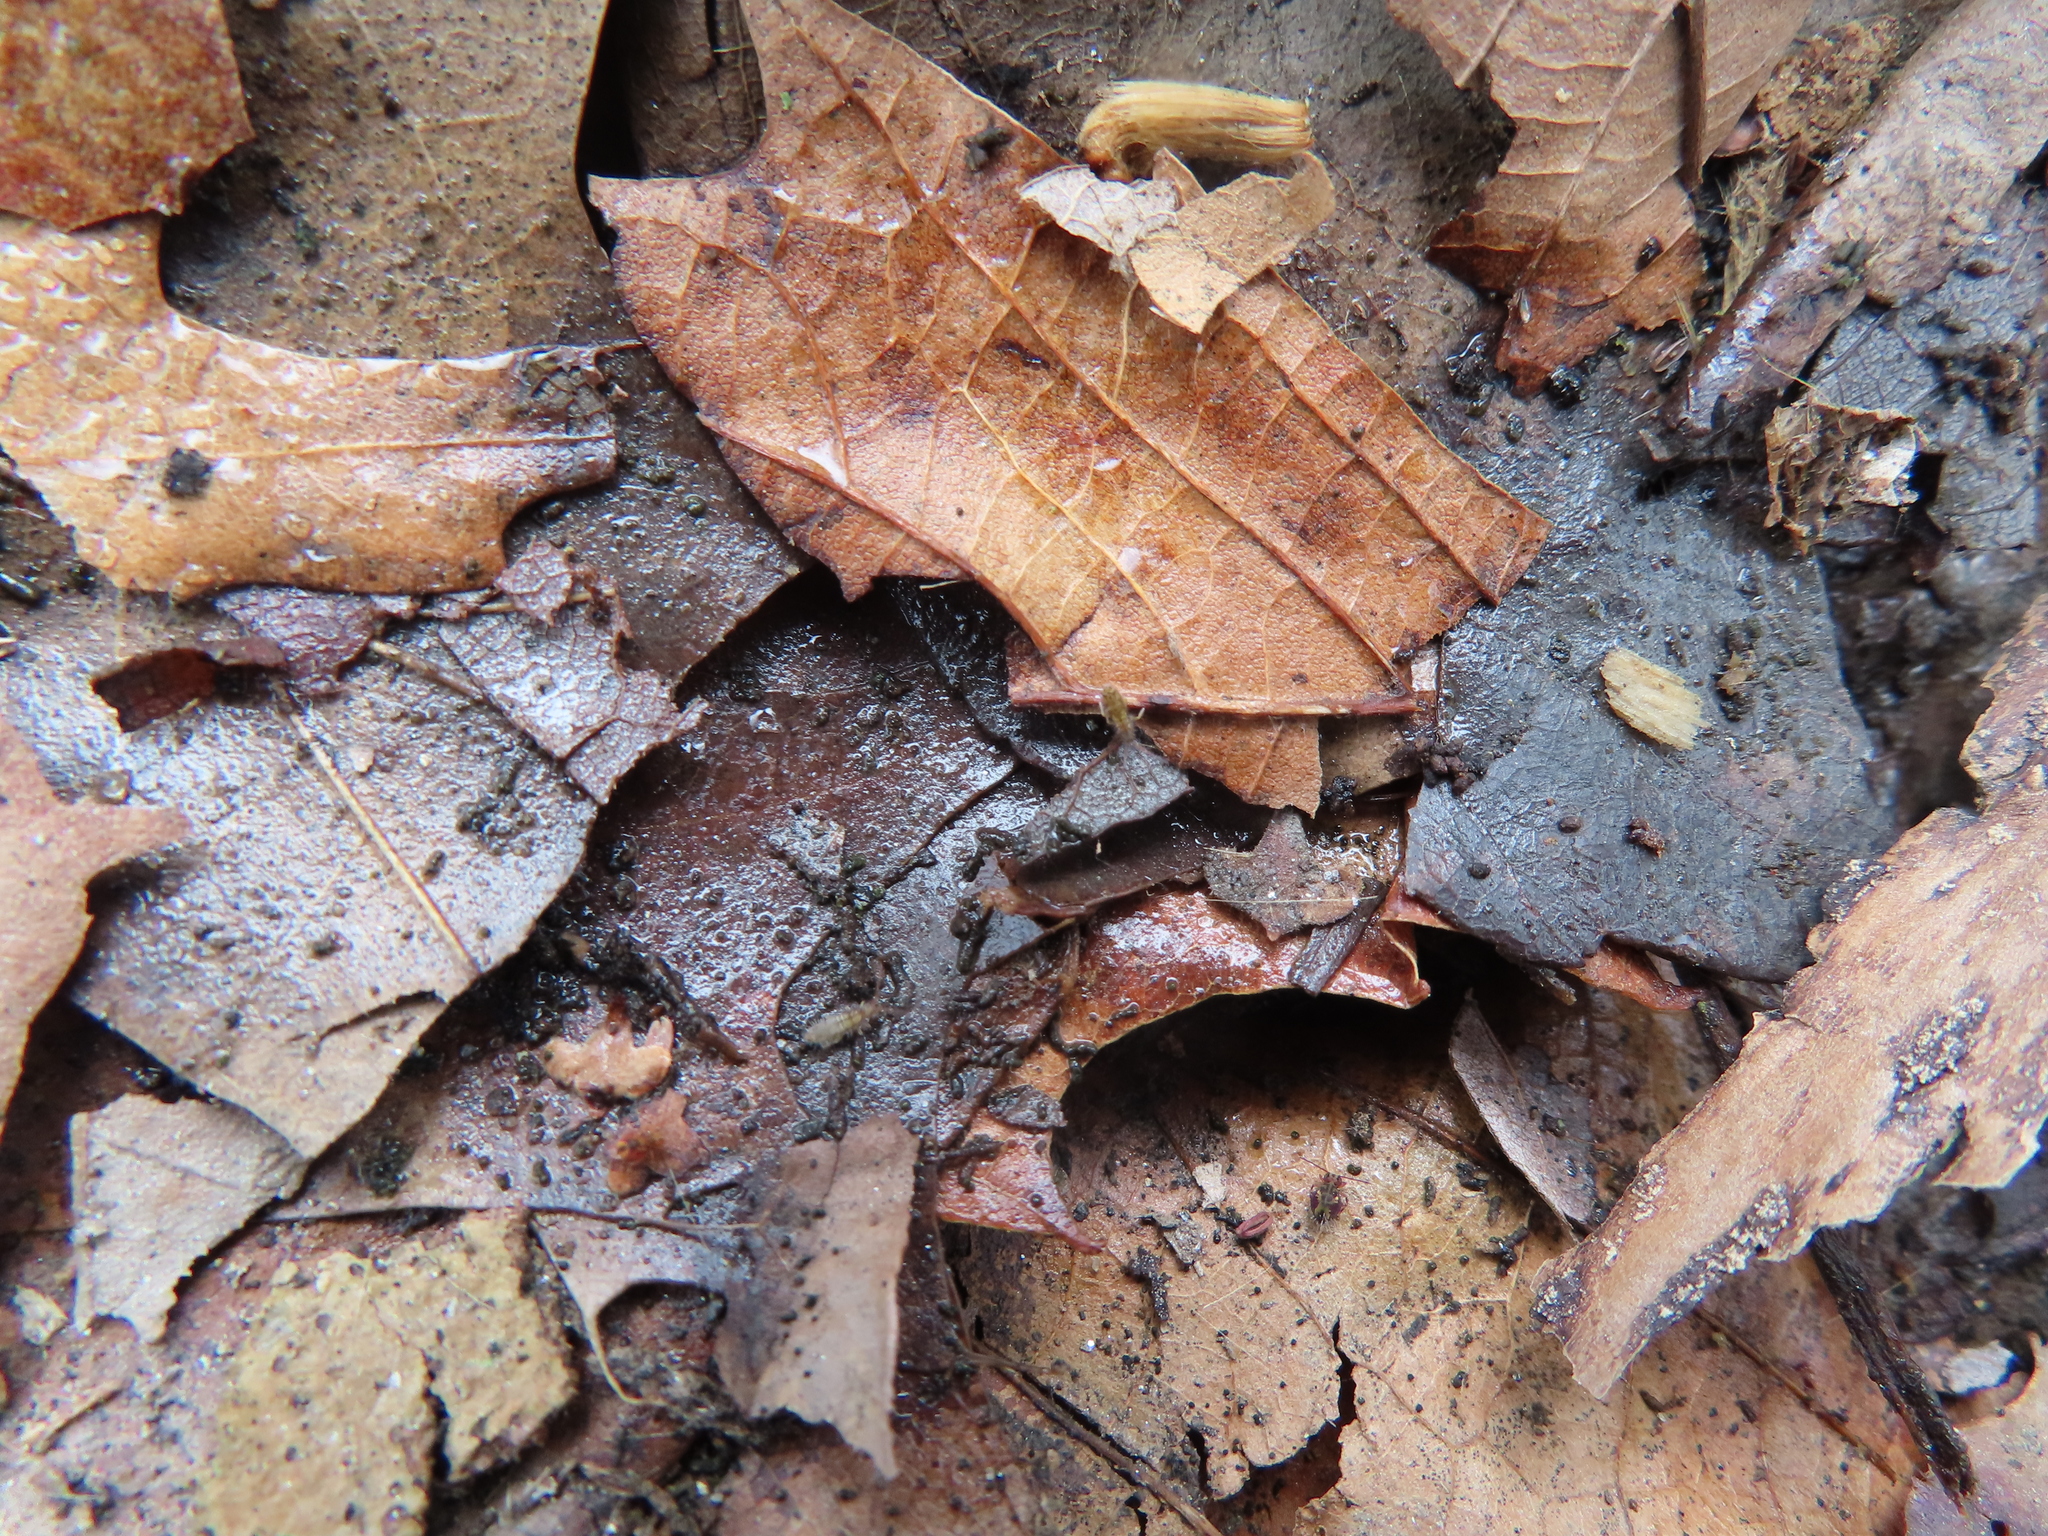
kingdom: Animalia
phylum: Arthropoda
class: Collembola
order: Symphypleona
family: Dicyrtomidae
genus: Dicyrtomina
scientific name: Dicyrtomina minuta
